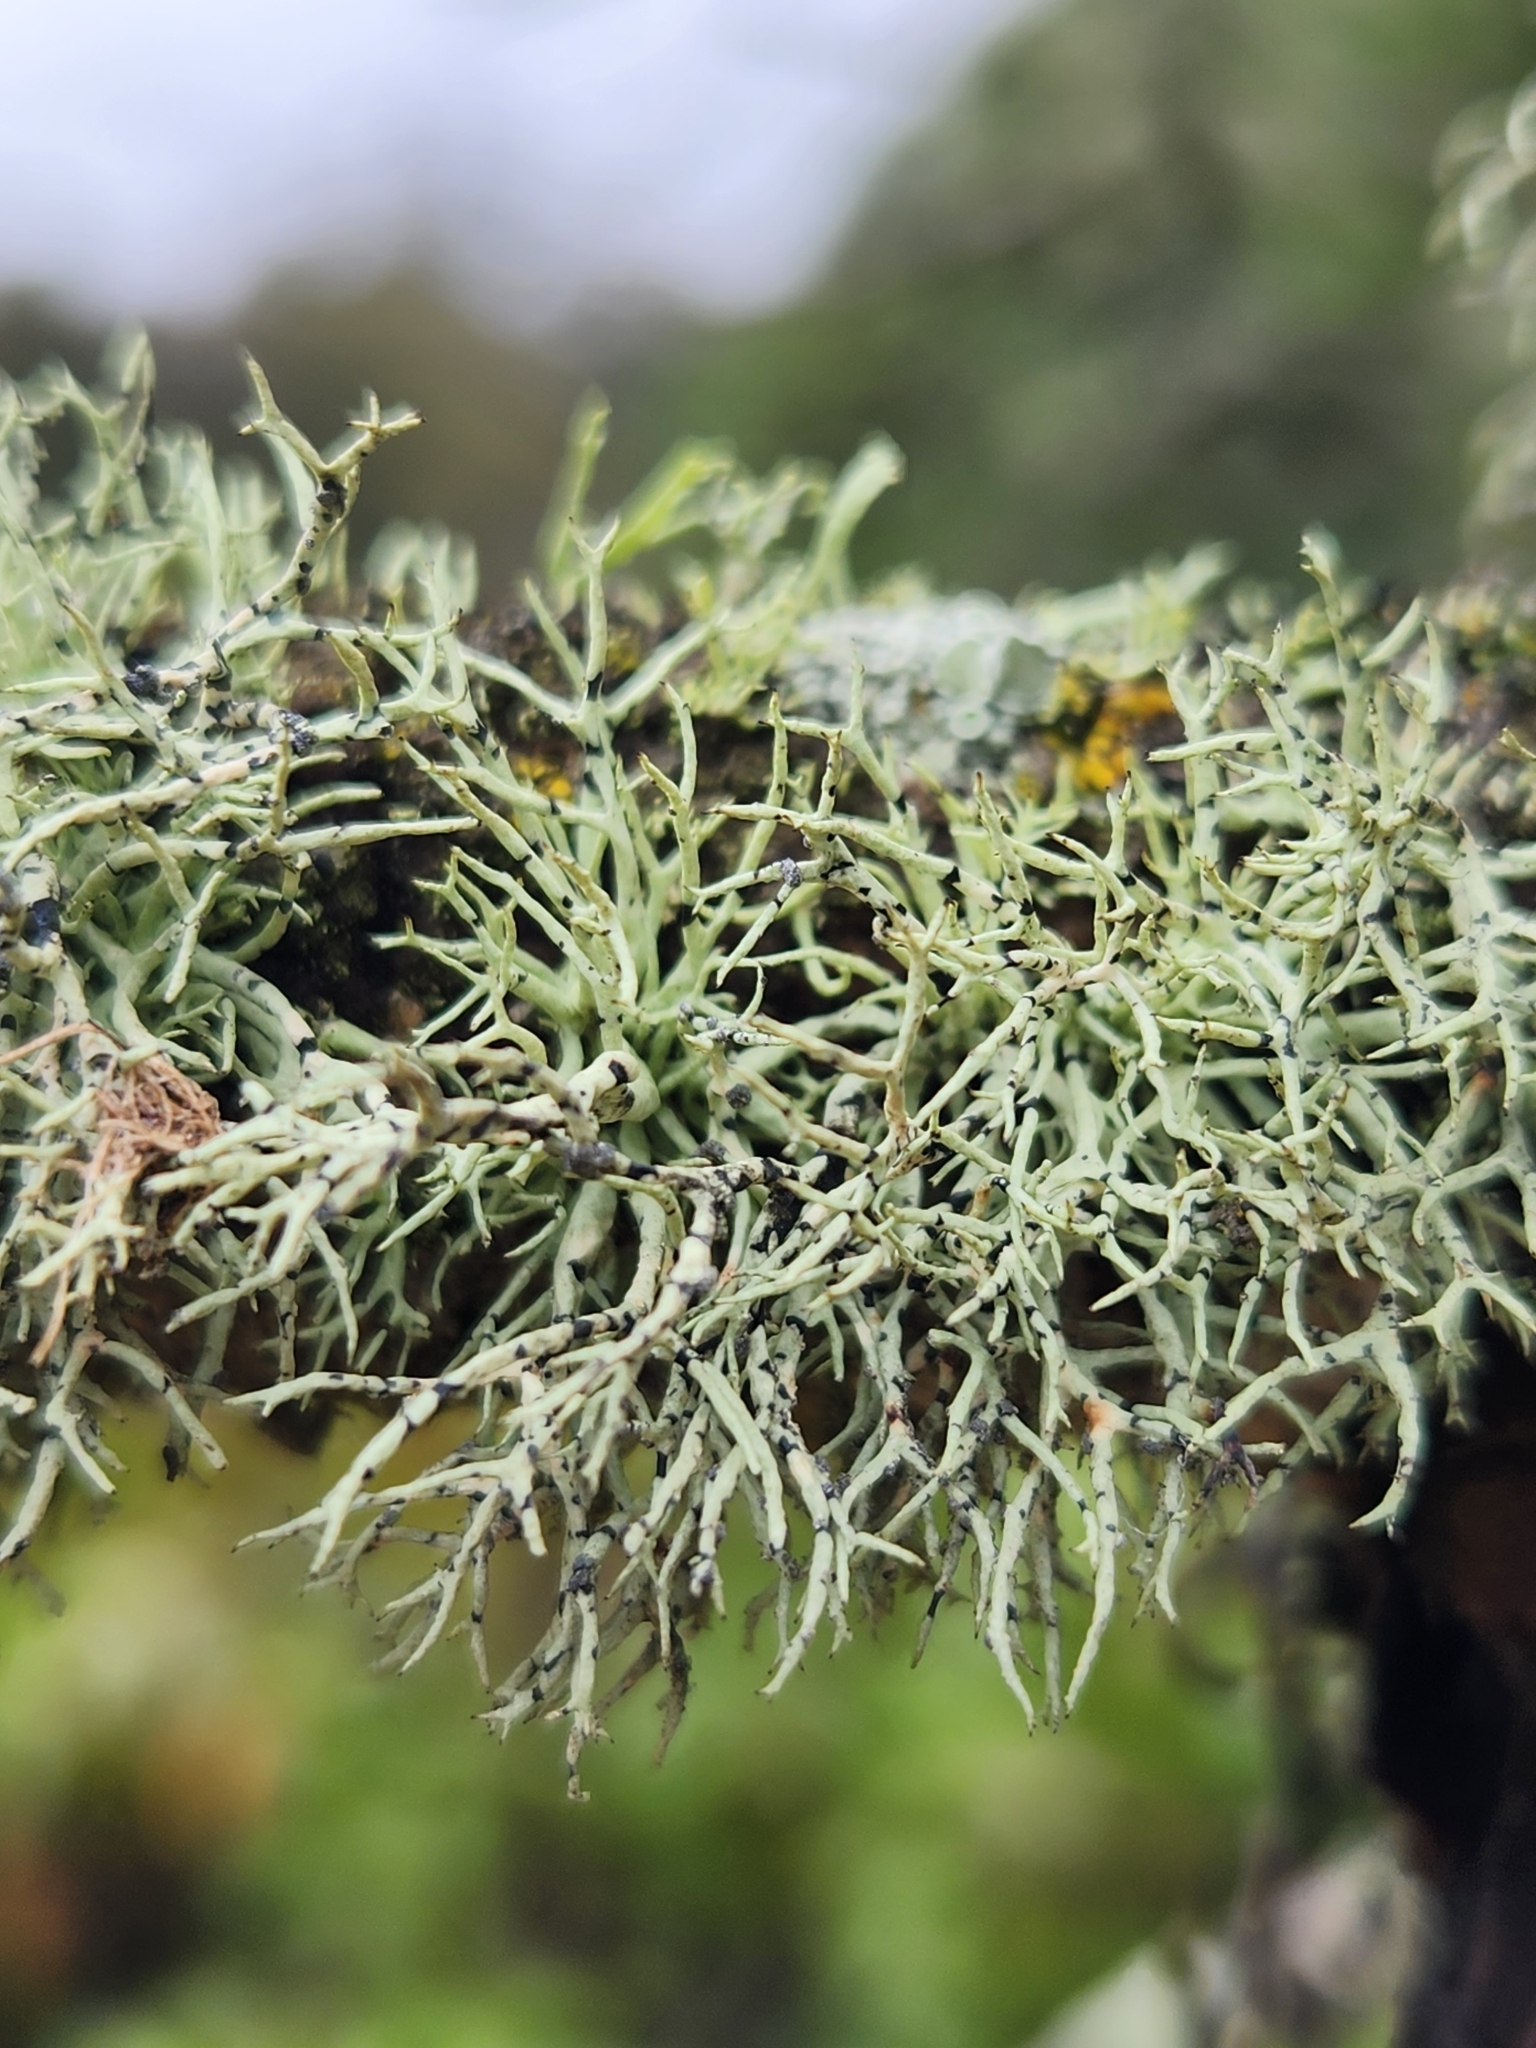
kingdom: Fungi
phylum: Ascomycota
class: Lecanoromycetes
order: Lecanorales
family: Ramalinaceae
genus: Niebla
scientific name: Niebla cephalota
